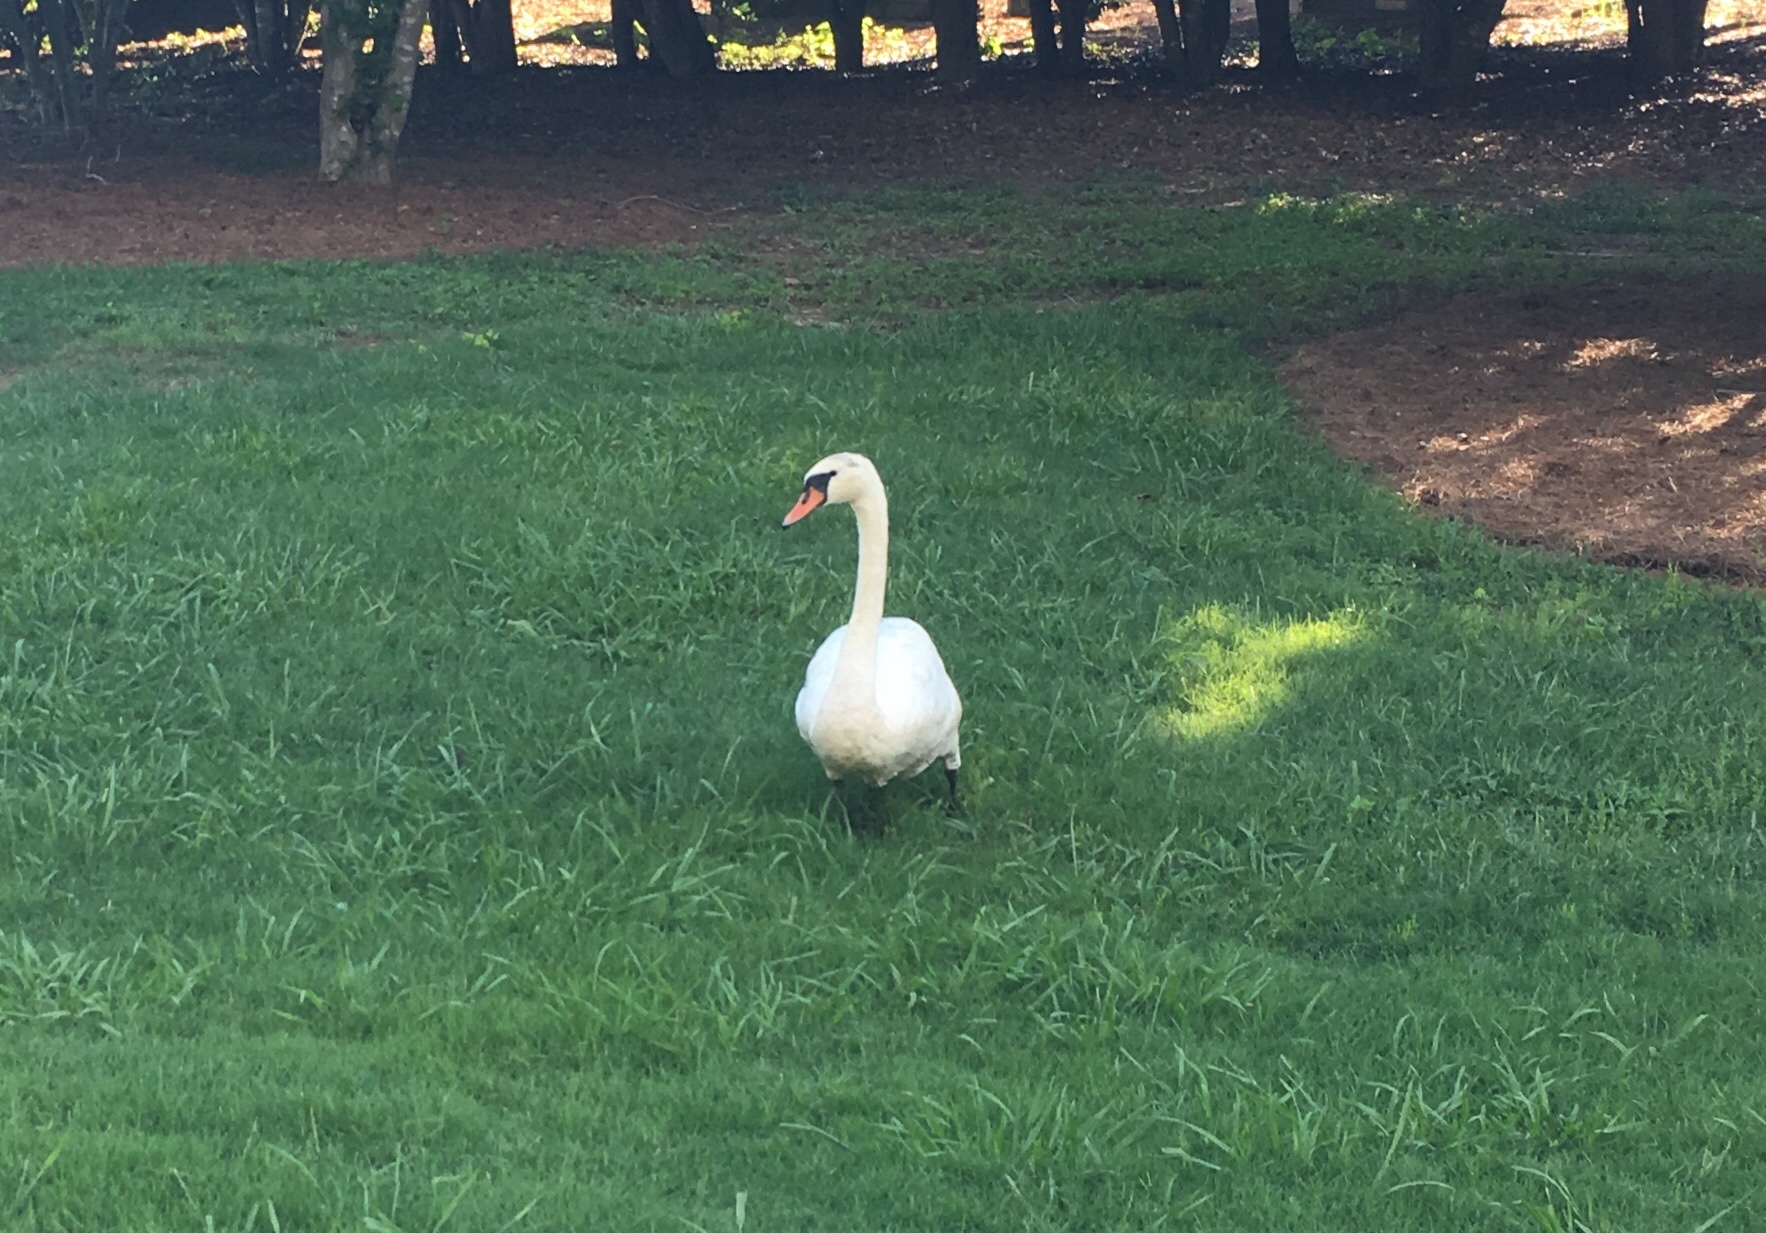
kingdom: Animalia
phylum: Chordata
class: Aves
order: Anseriformes
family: Anatidae
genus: Cygnus
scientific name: Cygnus olor
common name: Mute swan
